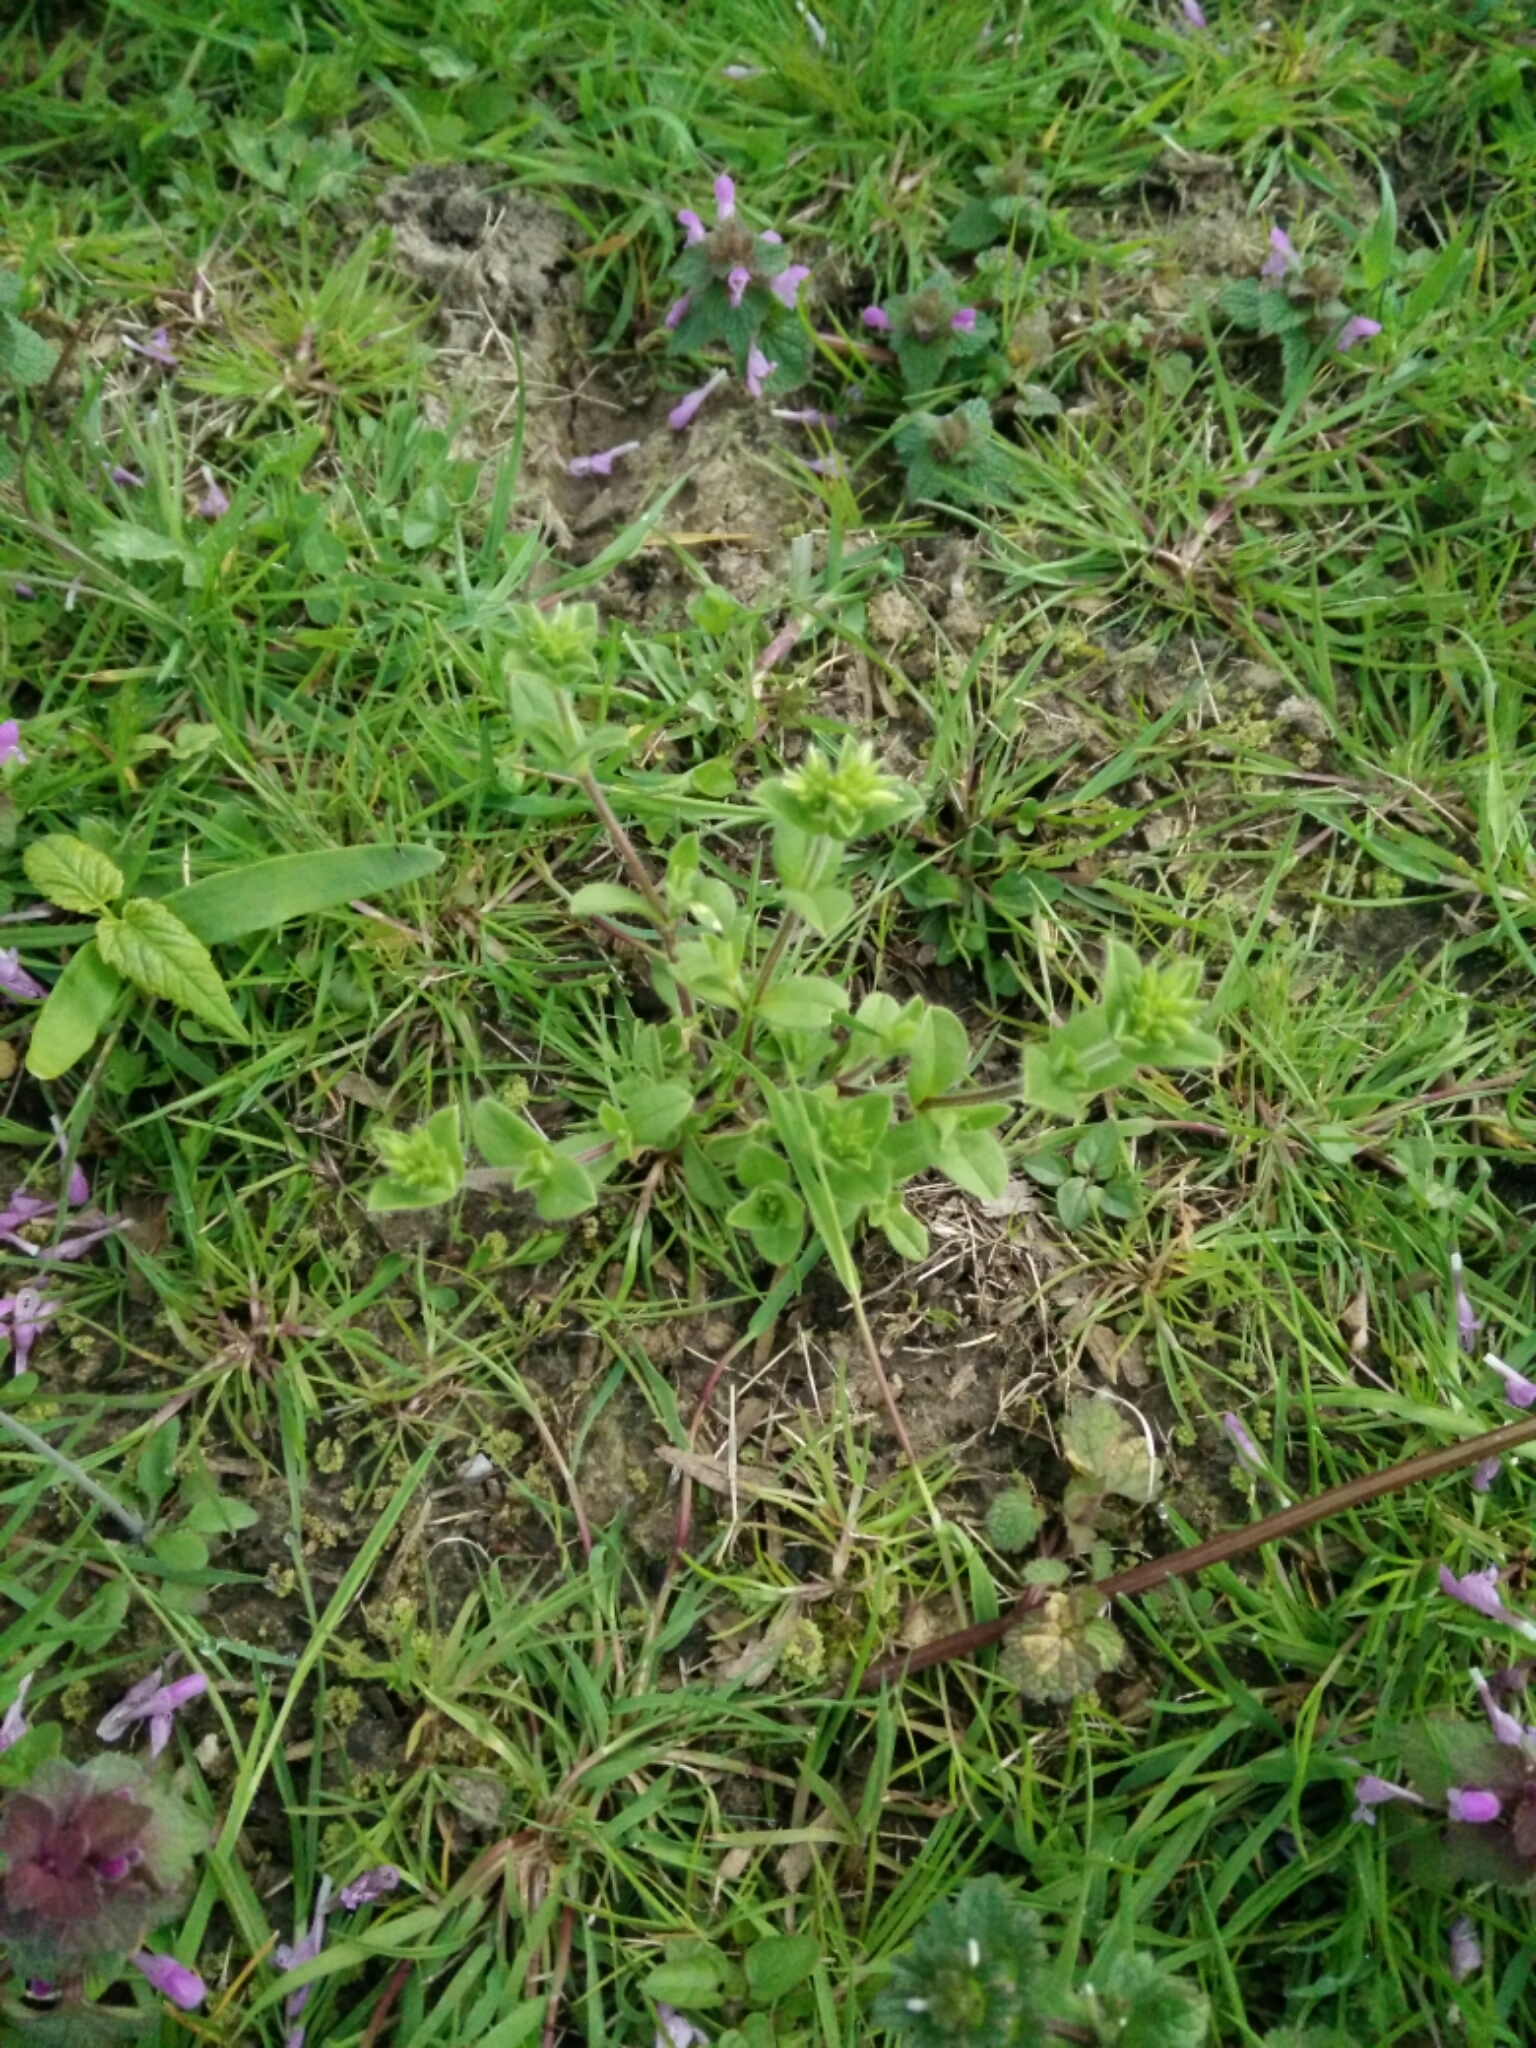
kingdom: Plantae
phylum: Tracheophyta
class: Magnoliopsida
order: Caryophyllales
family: Caryophyllaceae
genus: Cerastium
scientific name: Cerastium glomeratum
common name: Sticky chickweed
